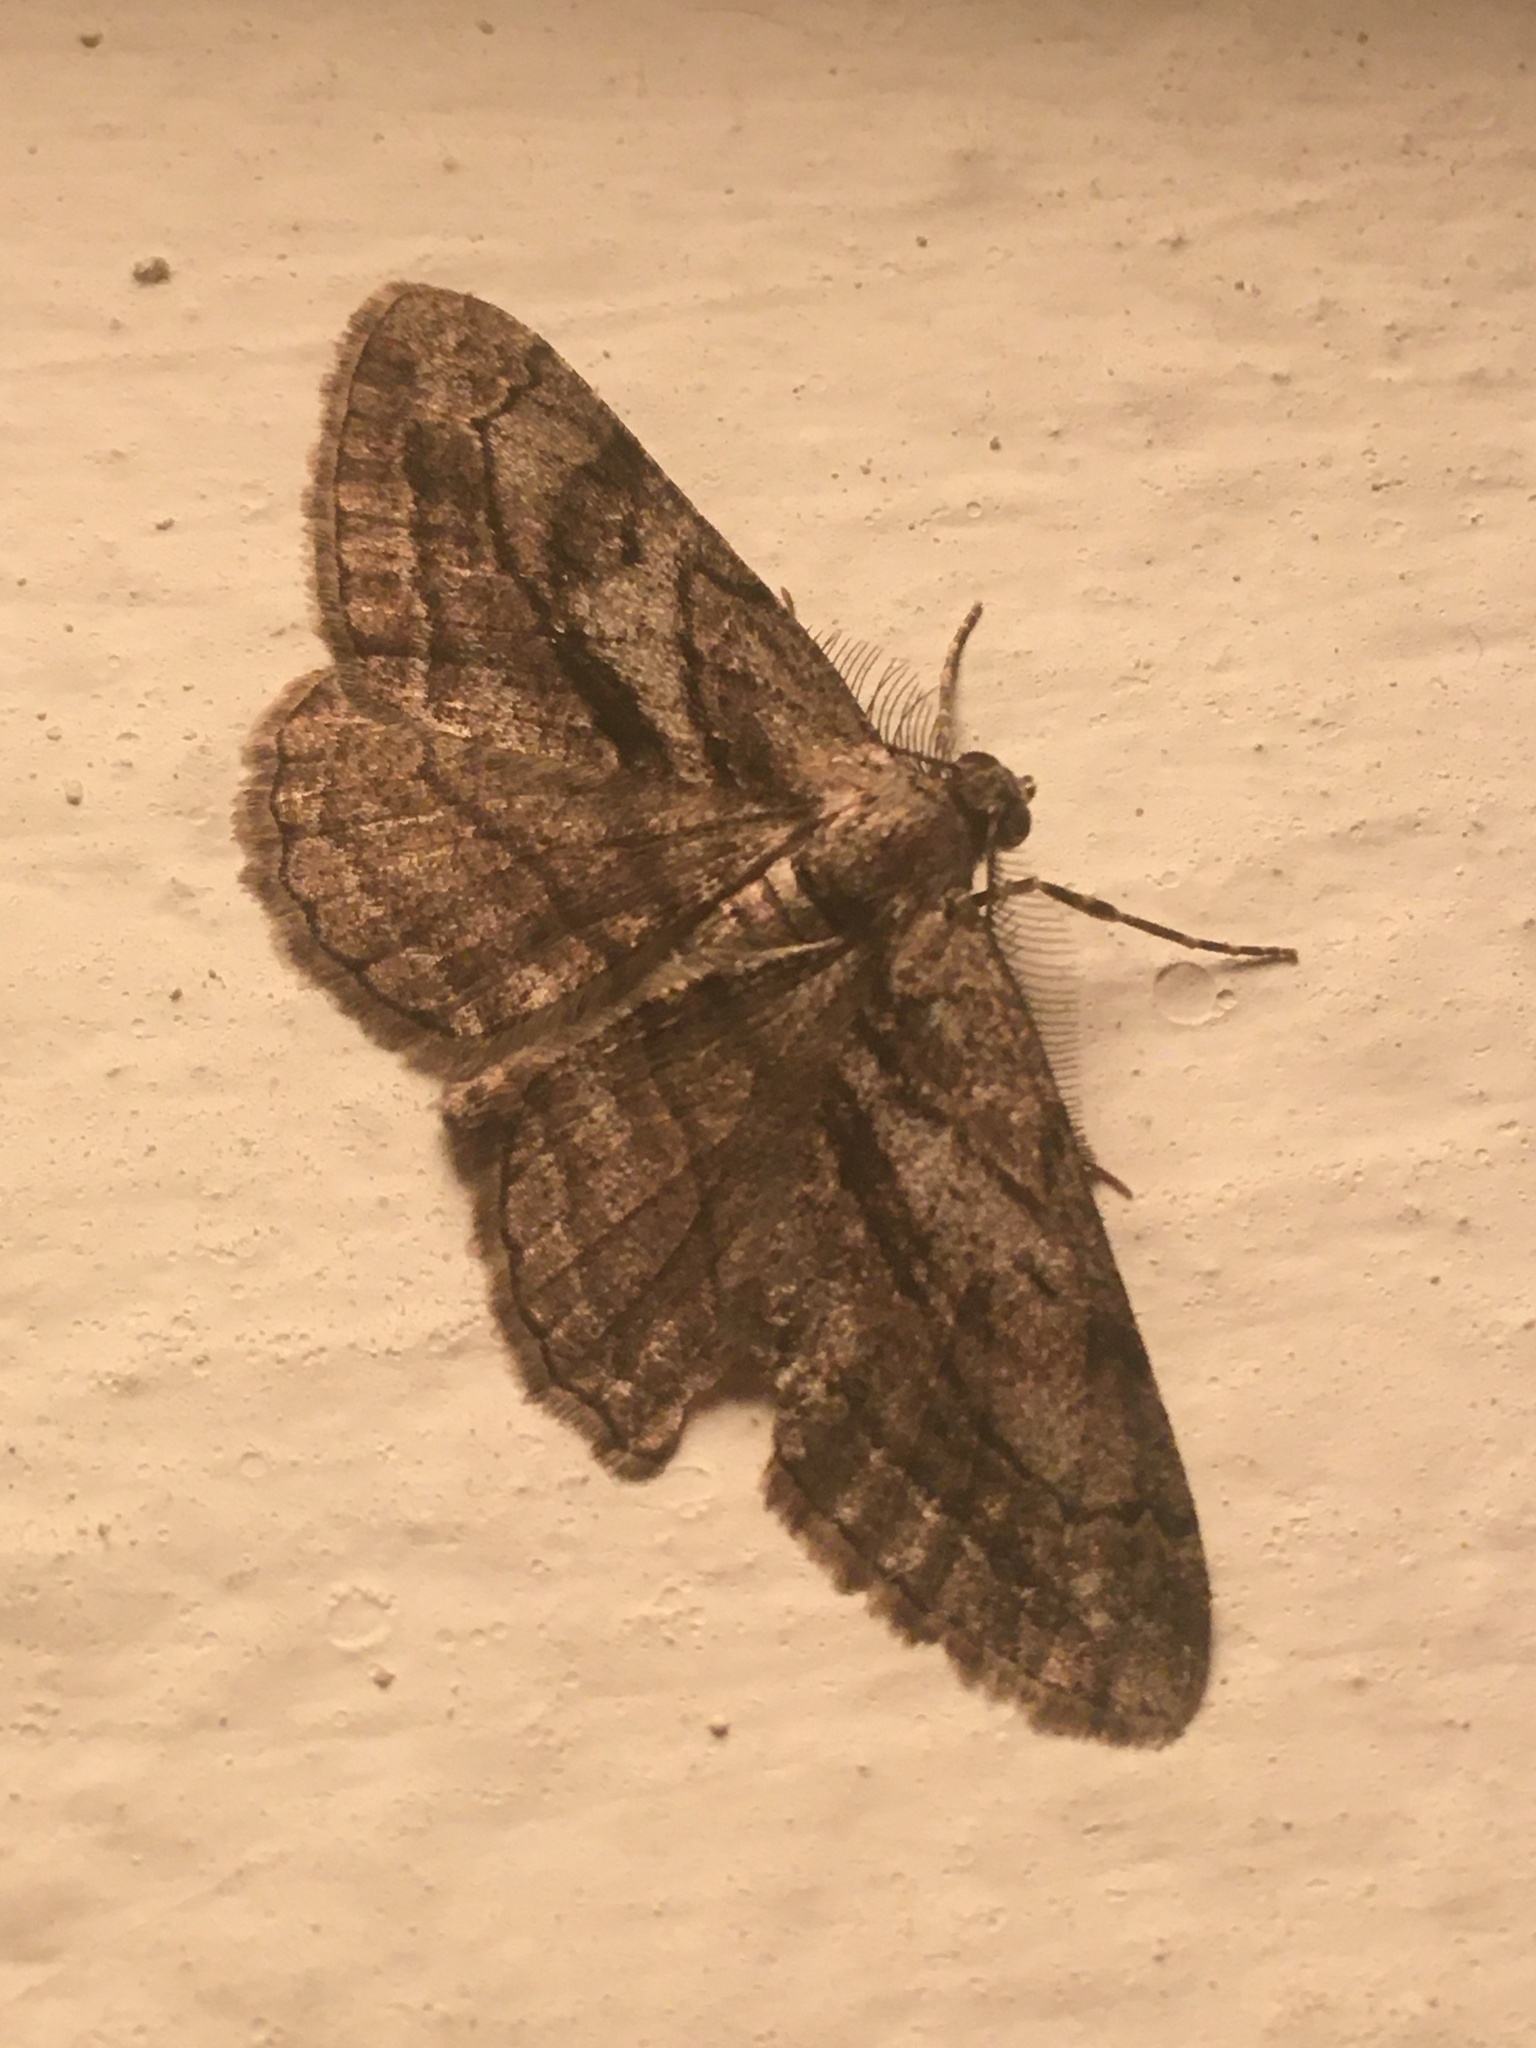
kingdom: Animalia
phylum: Arthropoda
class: Insecta
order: Lepidoptera
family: Geometridae
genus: Peribatodes
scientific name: Peribatodes correptaria
